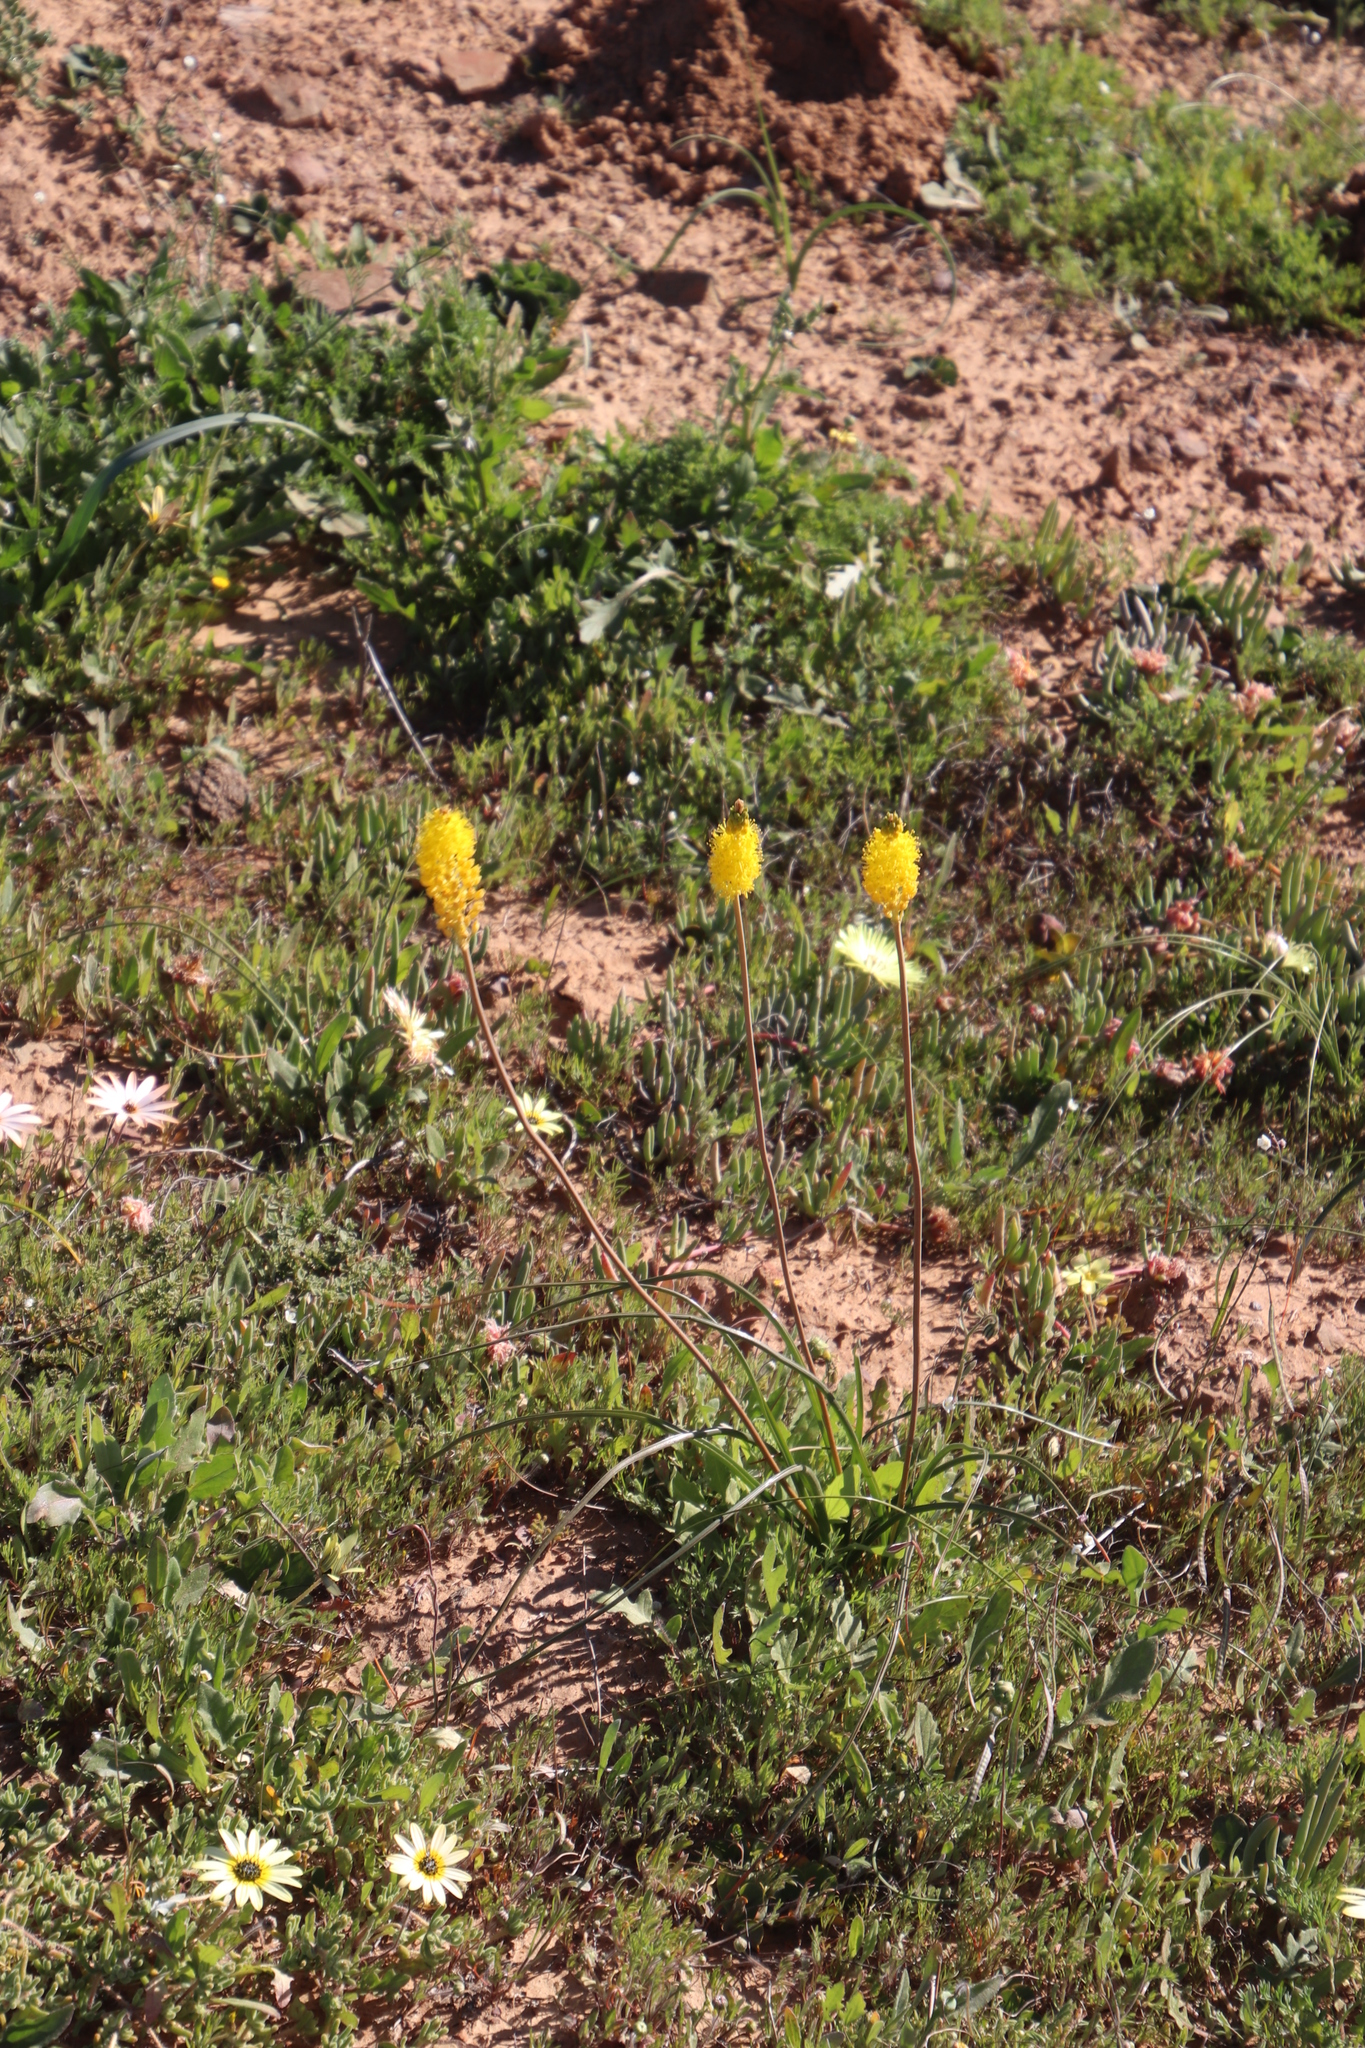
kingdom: Plantae
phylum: Tracheophyta
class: Liliopsida
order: Asparagales
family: Asphodelaceae
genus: Bulbinella
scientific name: Bulbinella nutans
